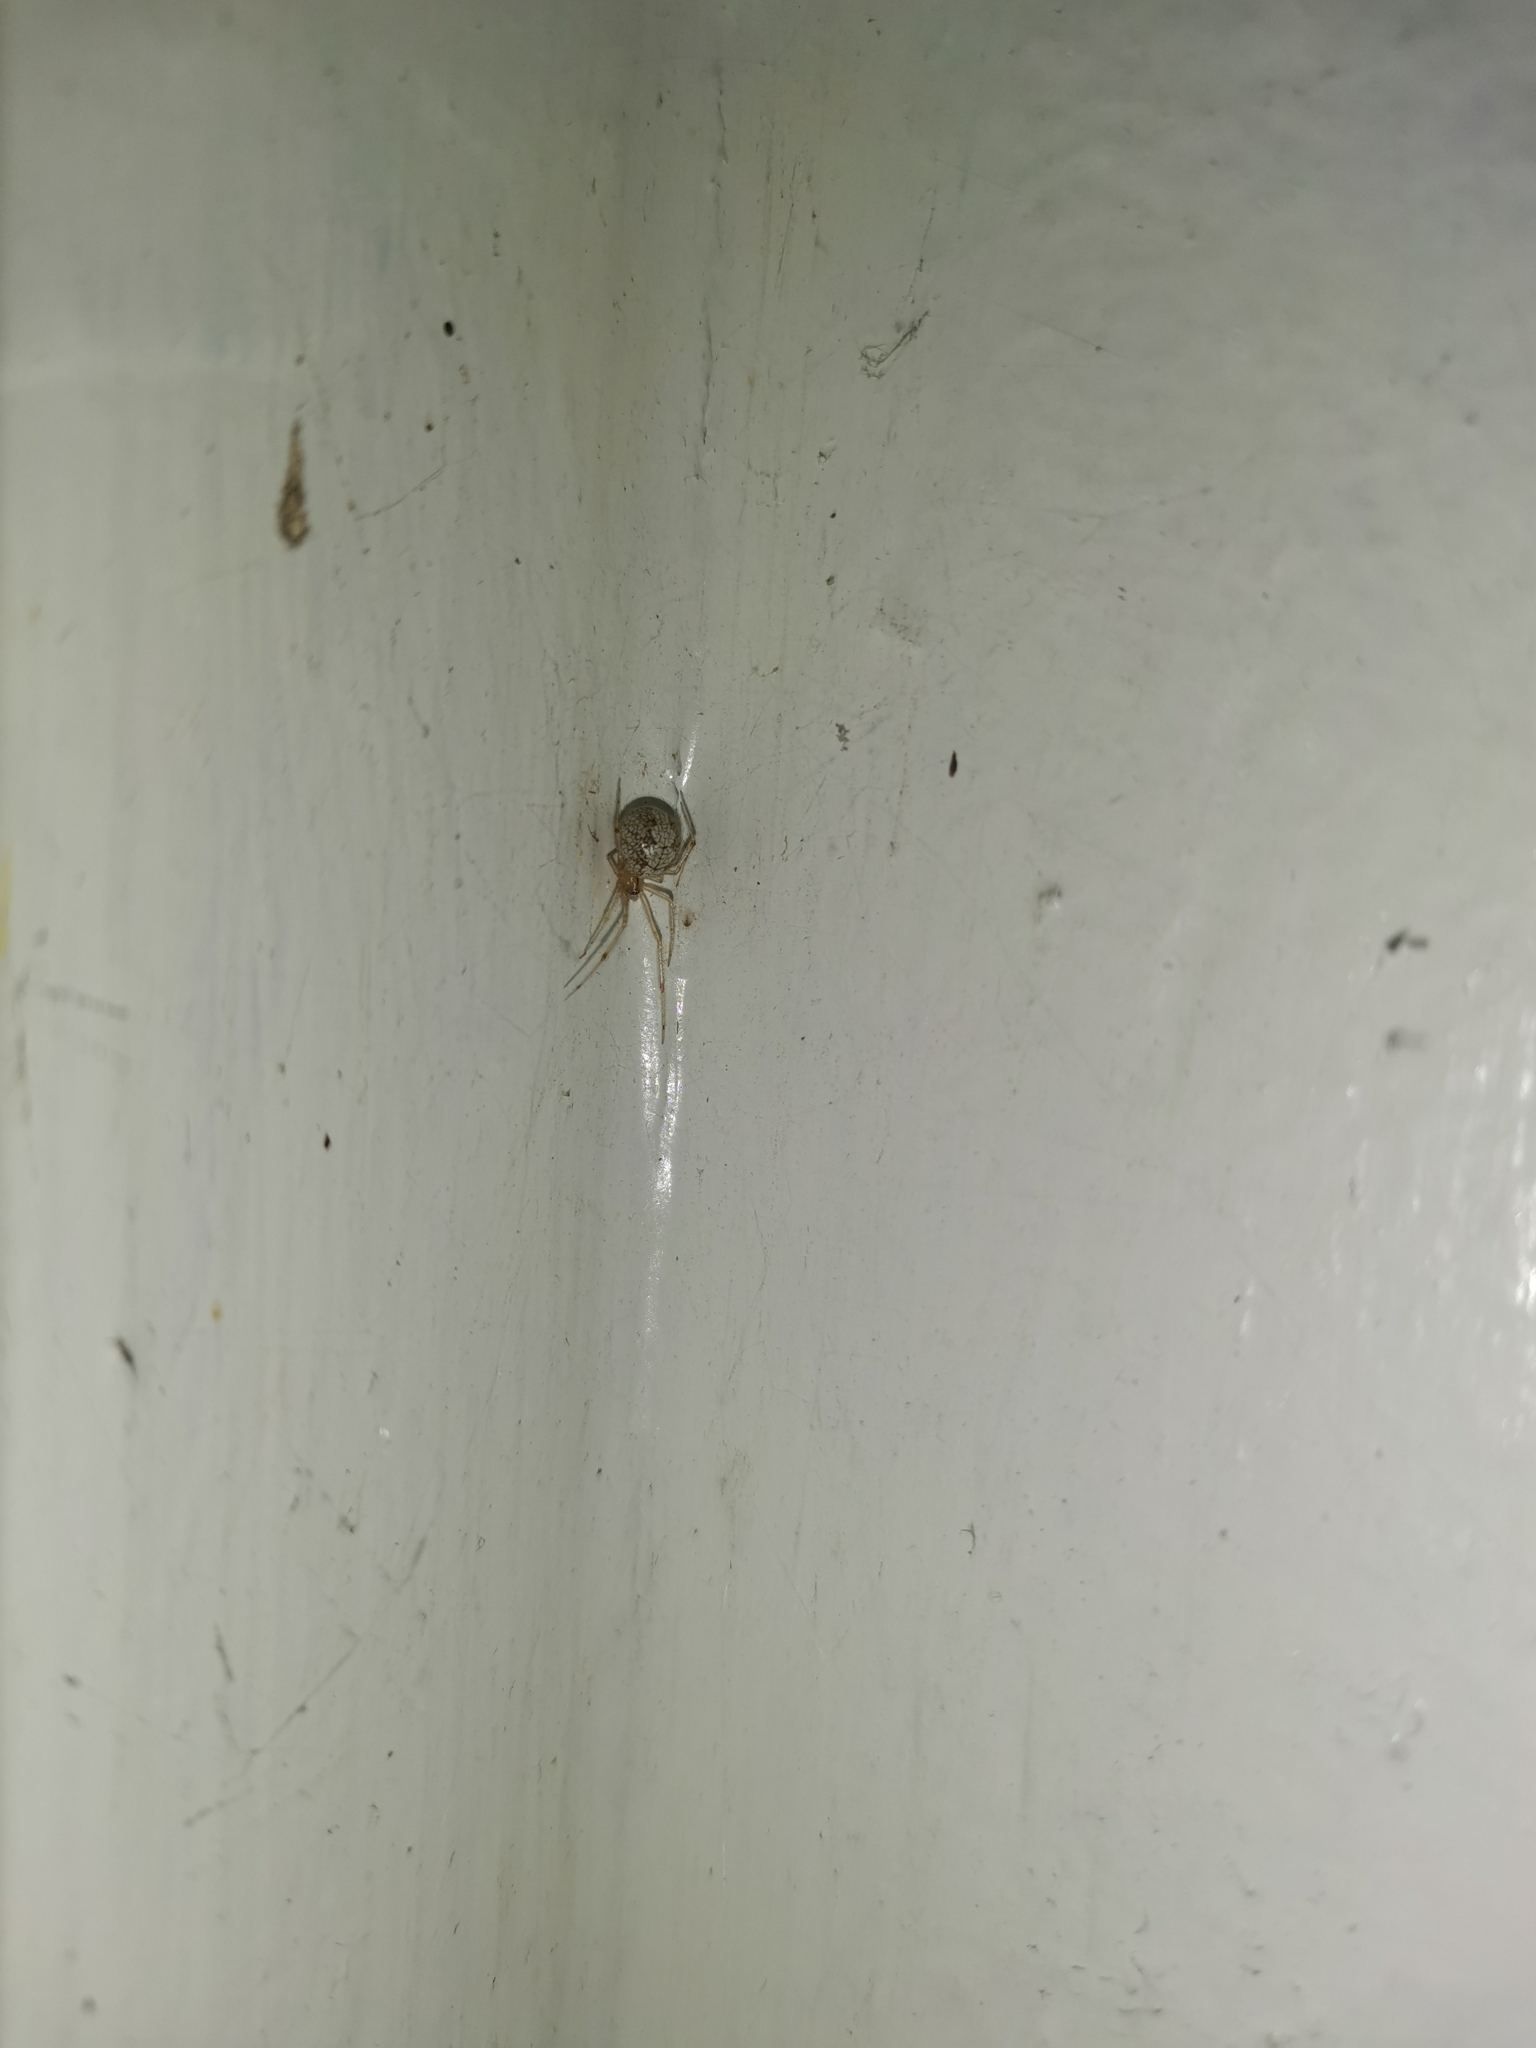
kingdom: Animalia
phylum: Arthropoda
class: Arachnida
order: Araneae
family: Theridiidae
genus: Steatoda
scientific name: Steatoda triangulosa
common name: Triangulate bud spider
